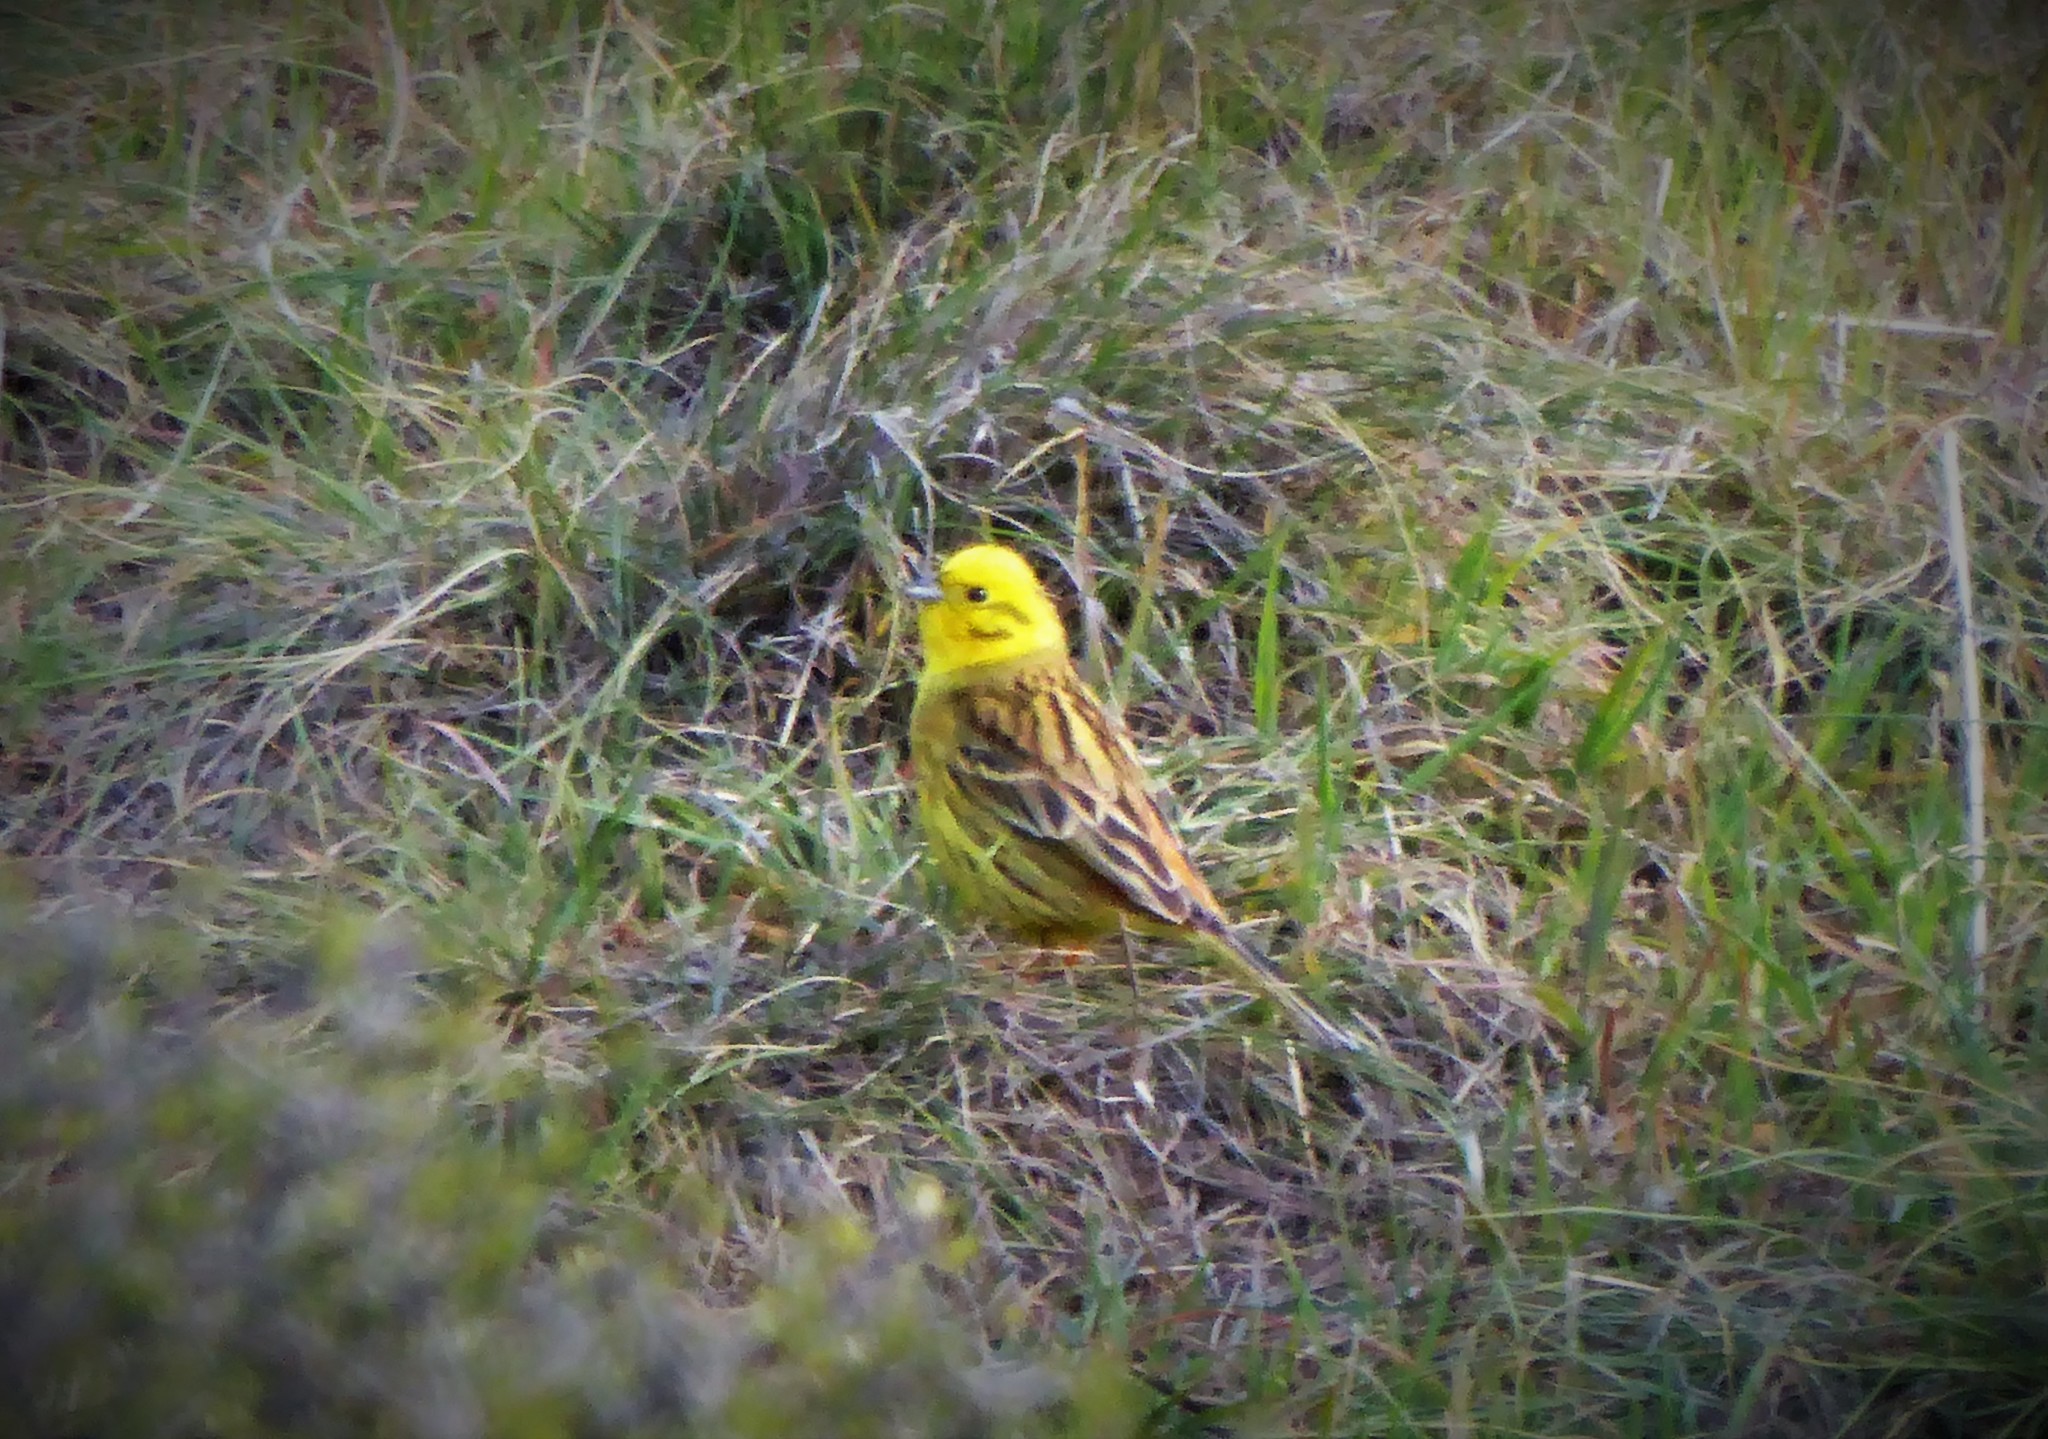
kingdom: Animalia
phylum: Chordata
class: Aves
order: Passeriformes
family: Emberizidae
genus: Emberiza
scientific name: Emberiza citrinella
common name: Yellowhammer
